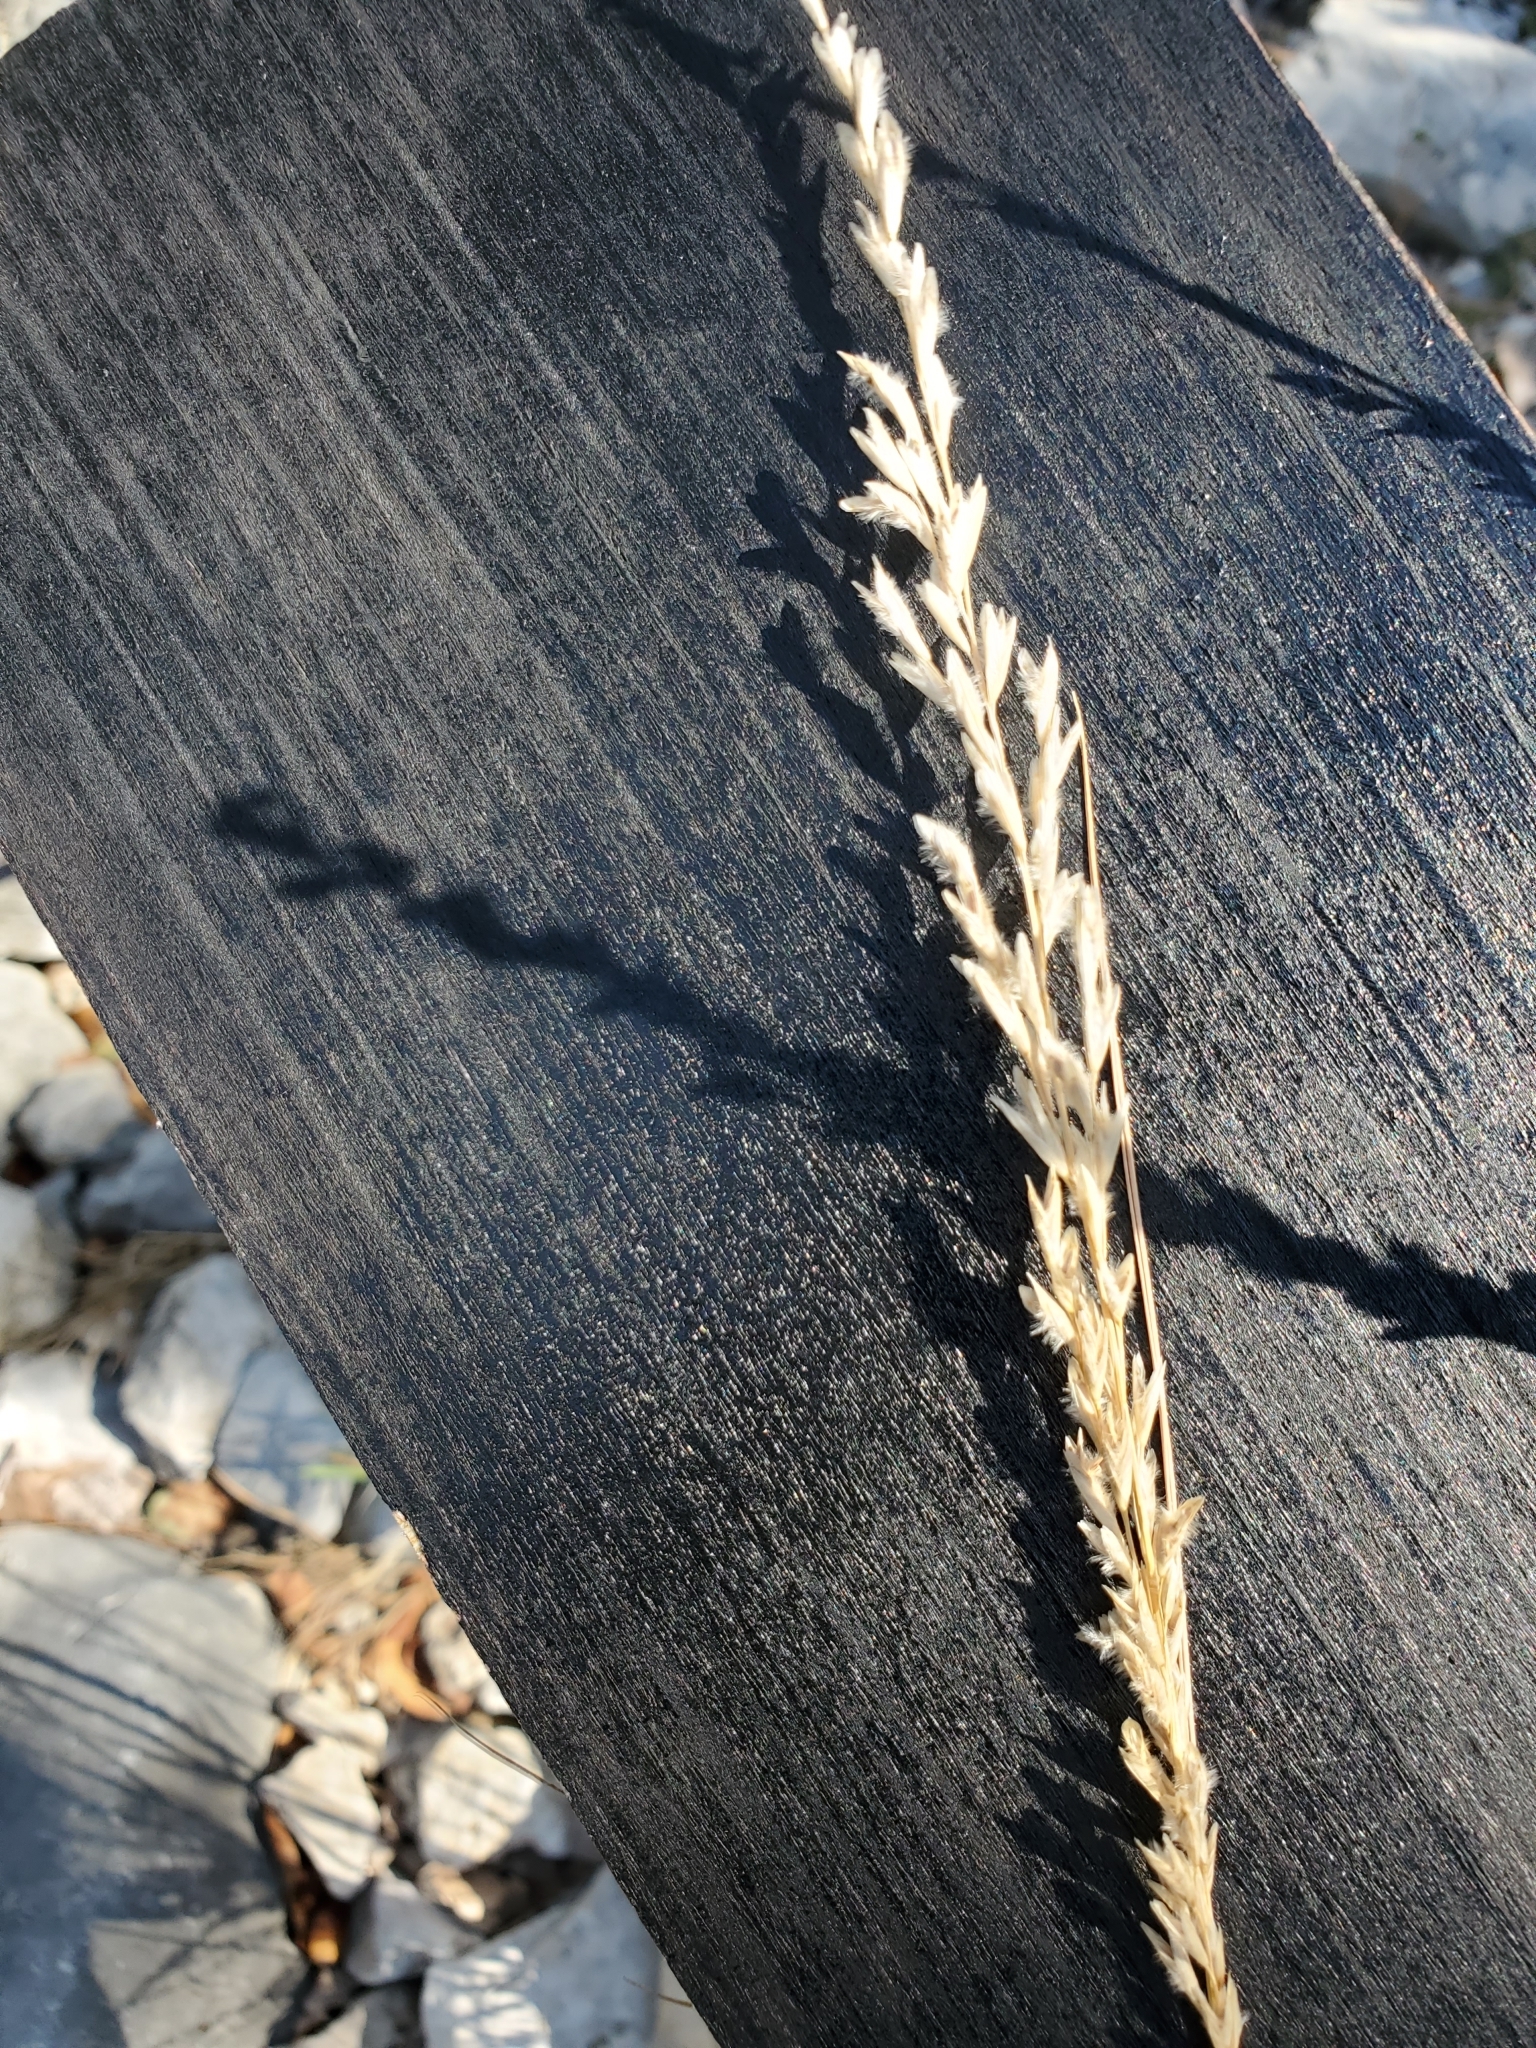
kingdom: Plantae
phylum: Tracheophyta
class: Liliopsida
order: Poales
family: Poaceae
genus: Tridentopsis
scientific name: Tridentopsis mutica
